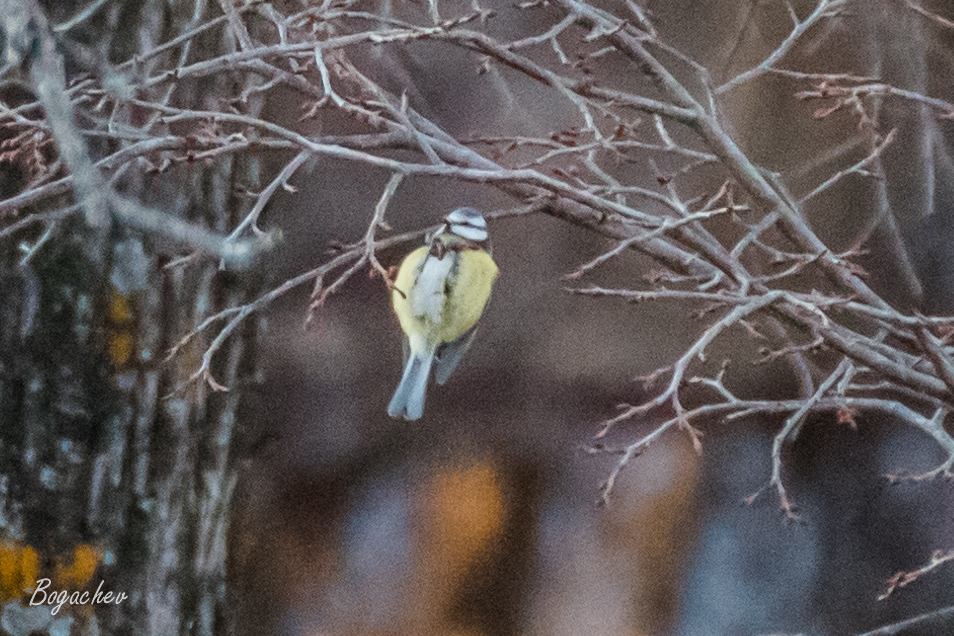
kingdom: Animalia
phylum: Chordata
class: Aves
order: Passeriformes
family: Paridae
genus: Cyanistes
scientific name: Cyanistes caeruleus
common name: Eurasian blue tit
